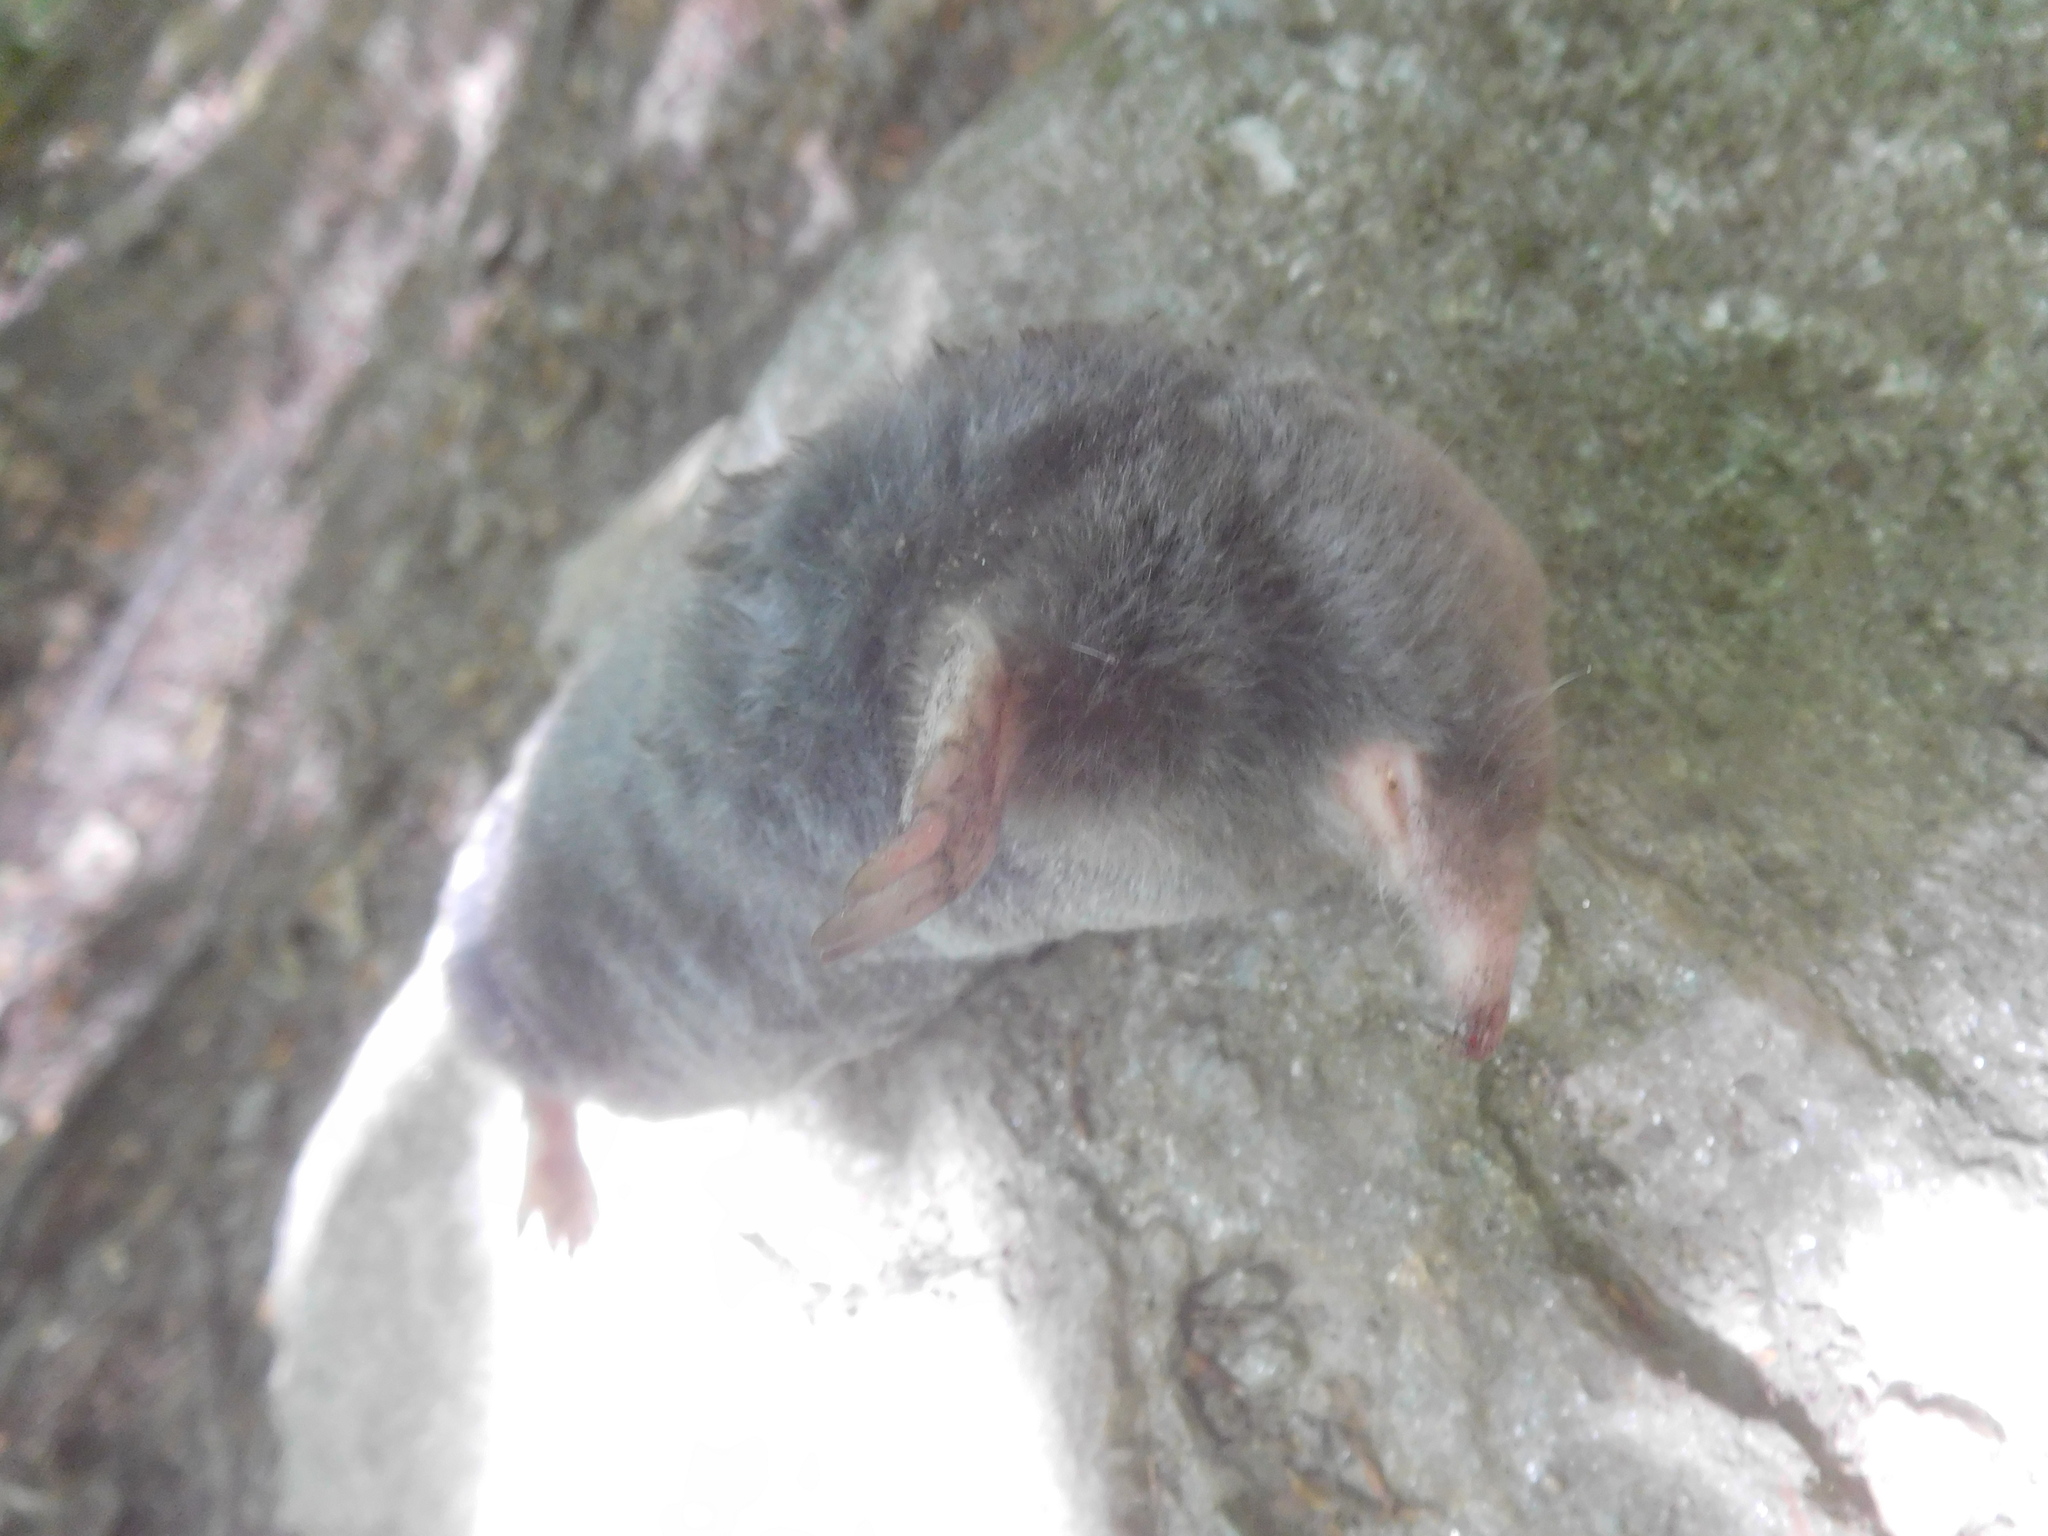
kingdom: Animalia
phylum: Chordata
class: Mammalia
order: Soricomorpha
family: Talpidae
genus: Parascalops
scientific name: Parascalops breweri
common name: Hairy-tailed mole
